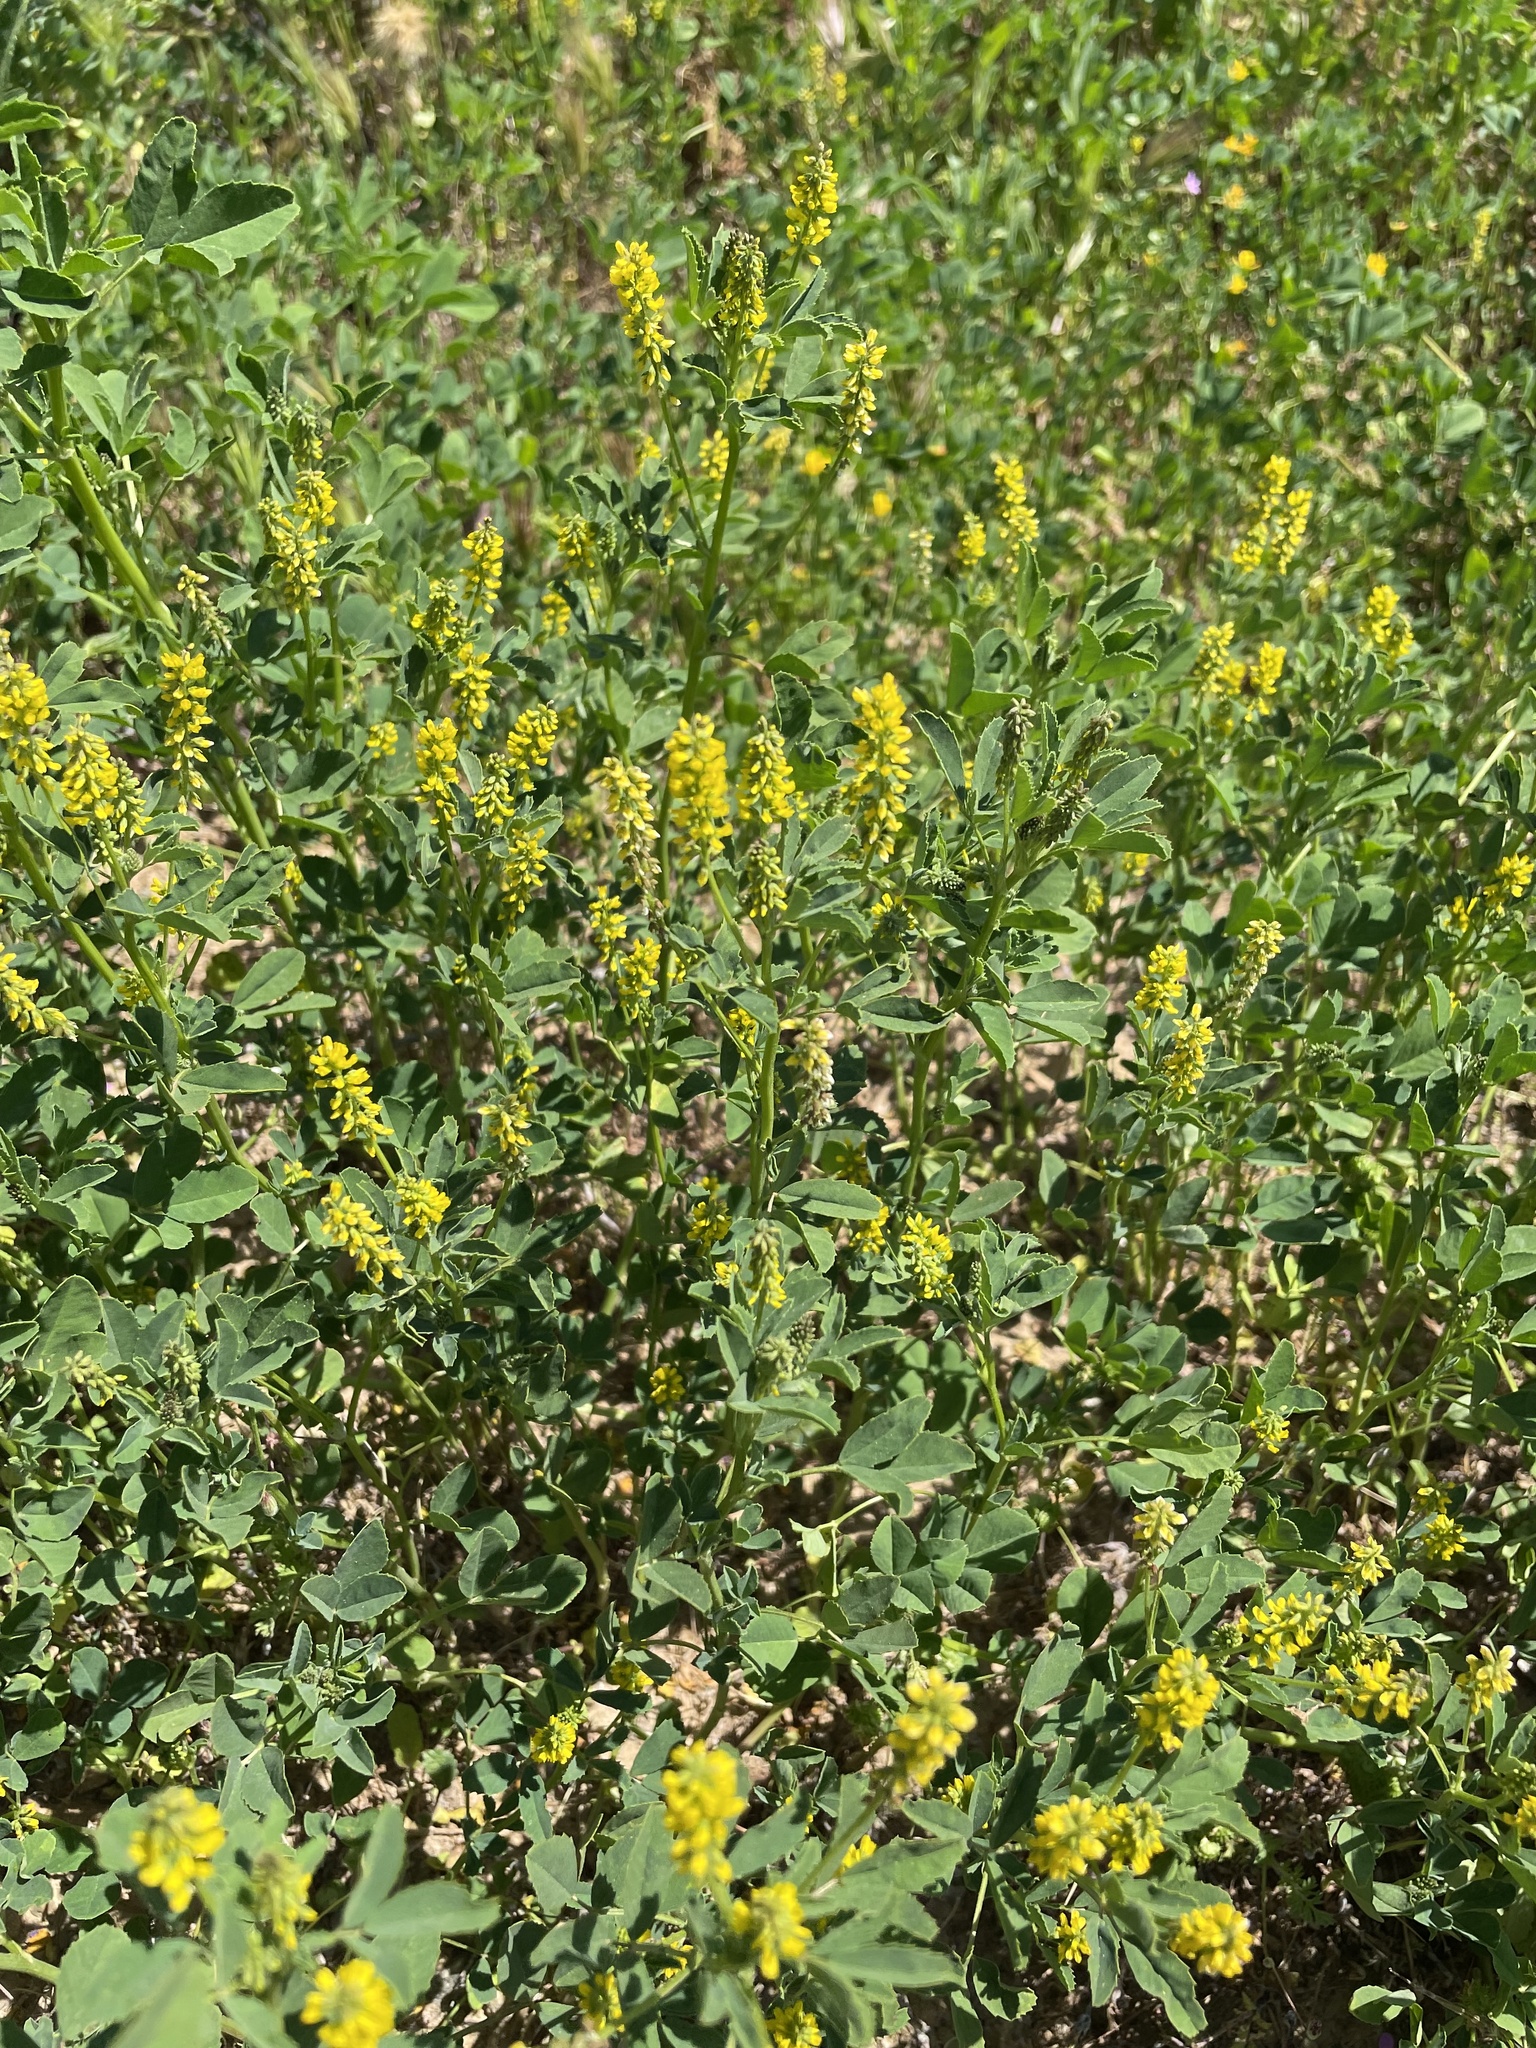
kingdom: Plantae
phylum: Tracheophyta
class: Magnoliopsida
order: Fabales
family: Fabaceae
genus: Melilotus
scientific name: Melilotus indicus
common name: Small melilot
